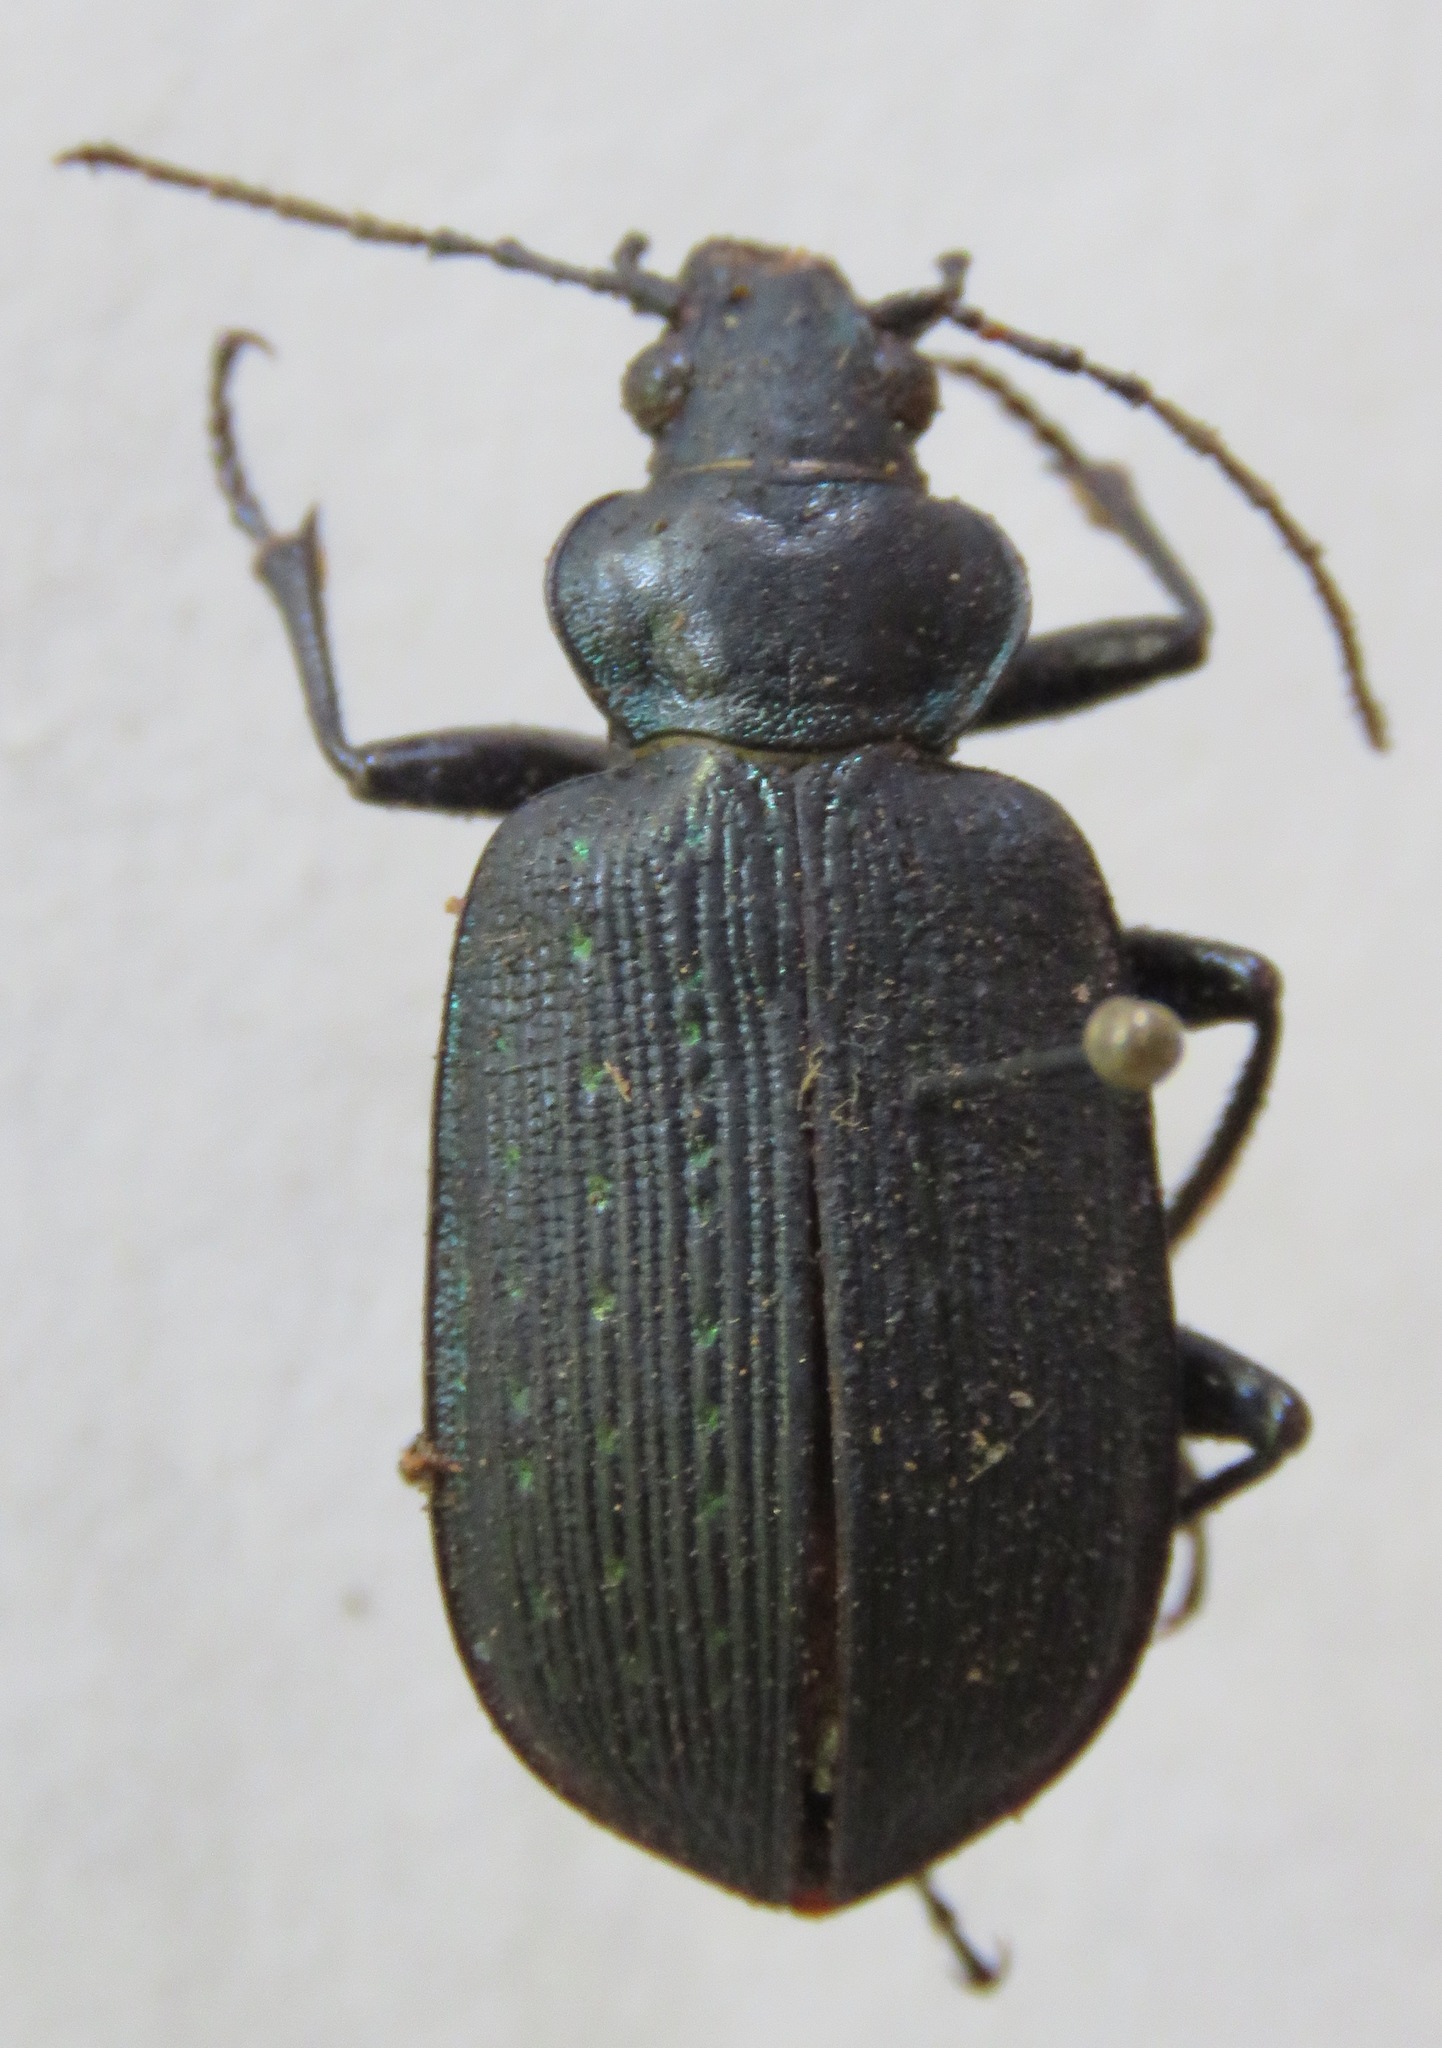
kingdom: Animalia
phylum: Arthropoda
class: Insecta
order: Coleoptera
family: Carabidae
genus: Calosoma
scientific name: Calosoma sayi
